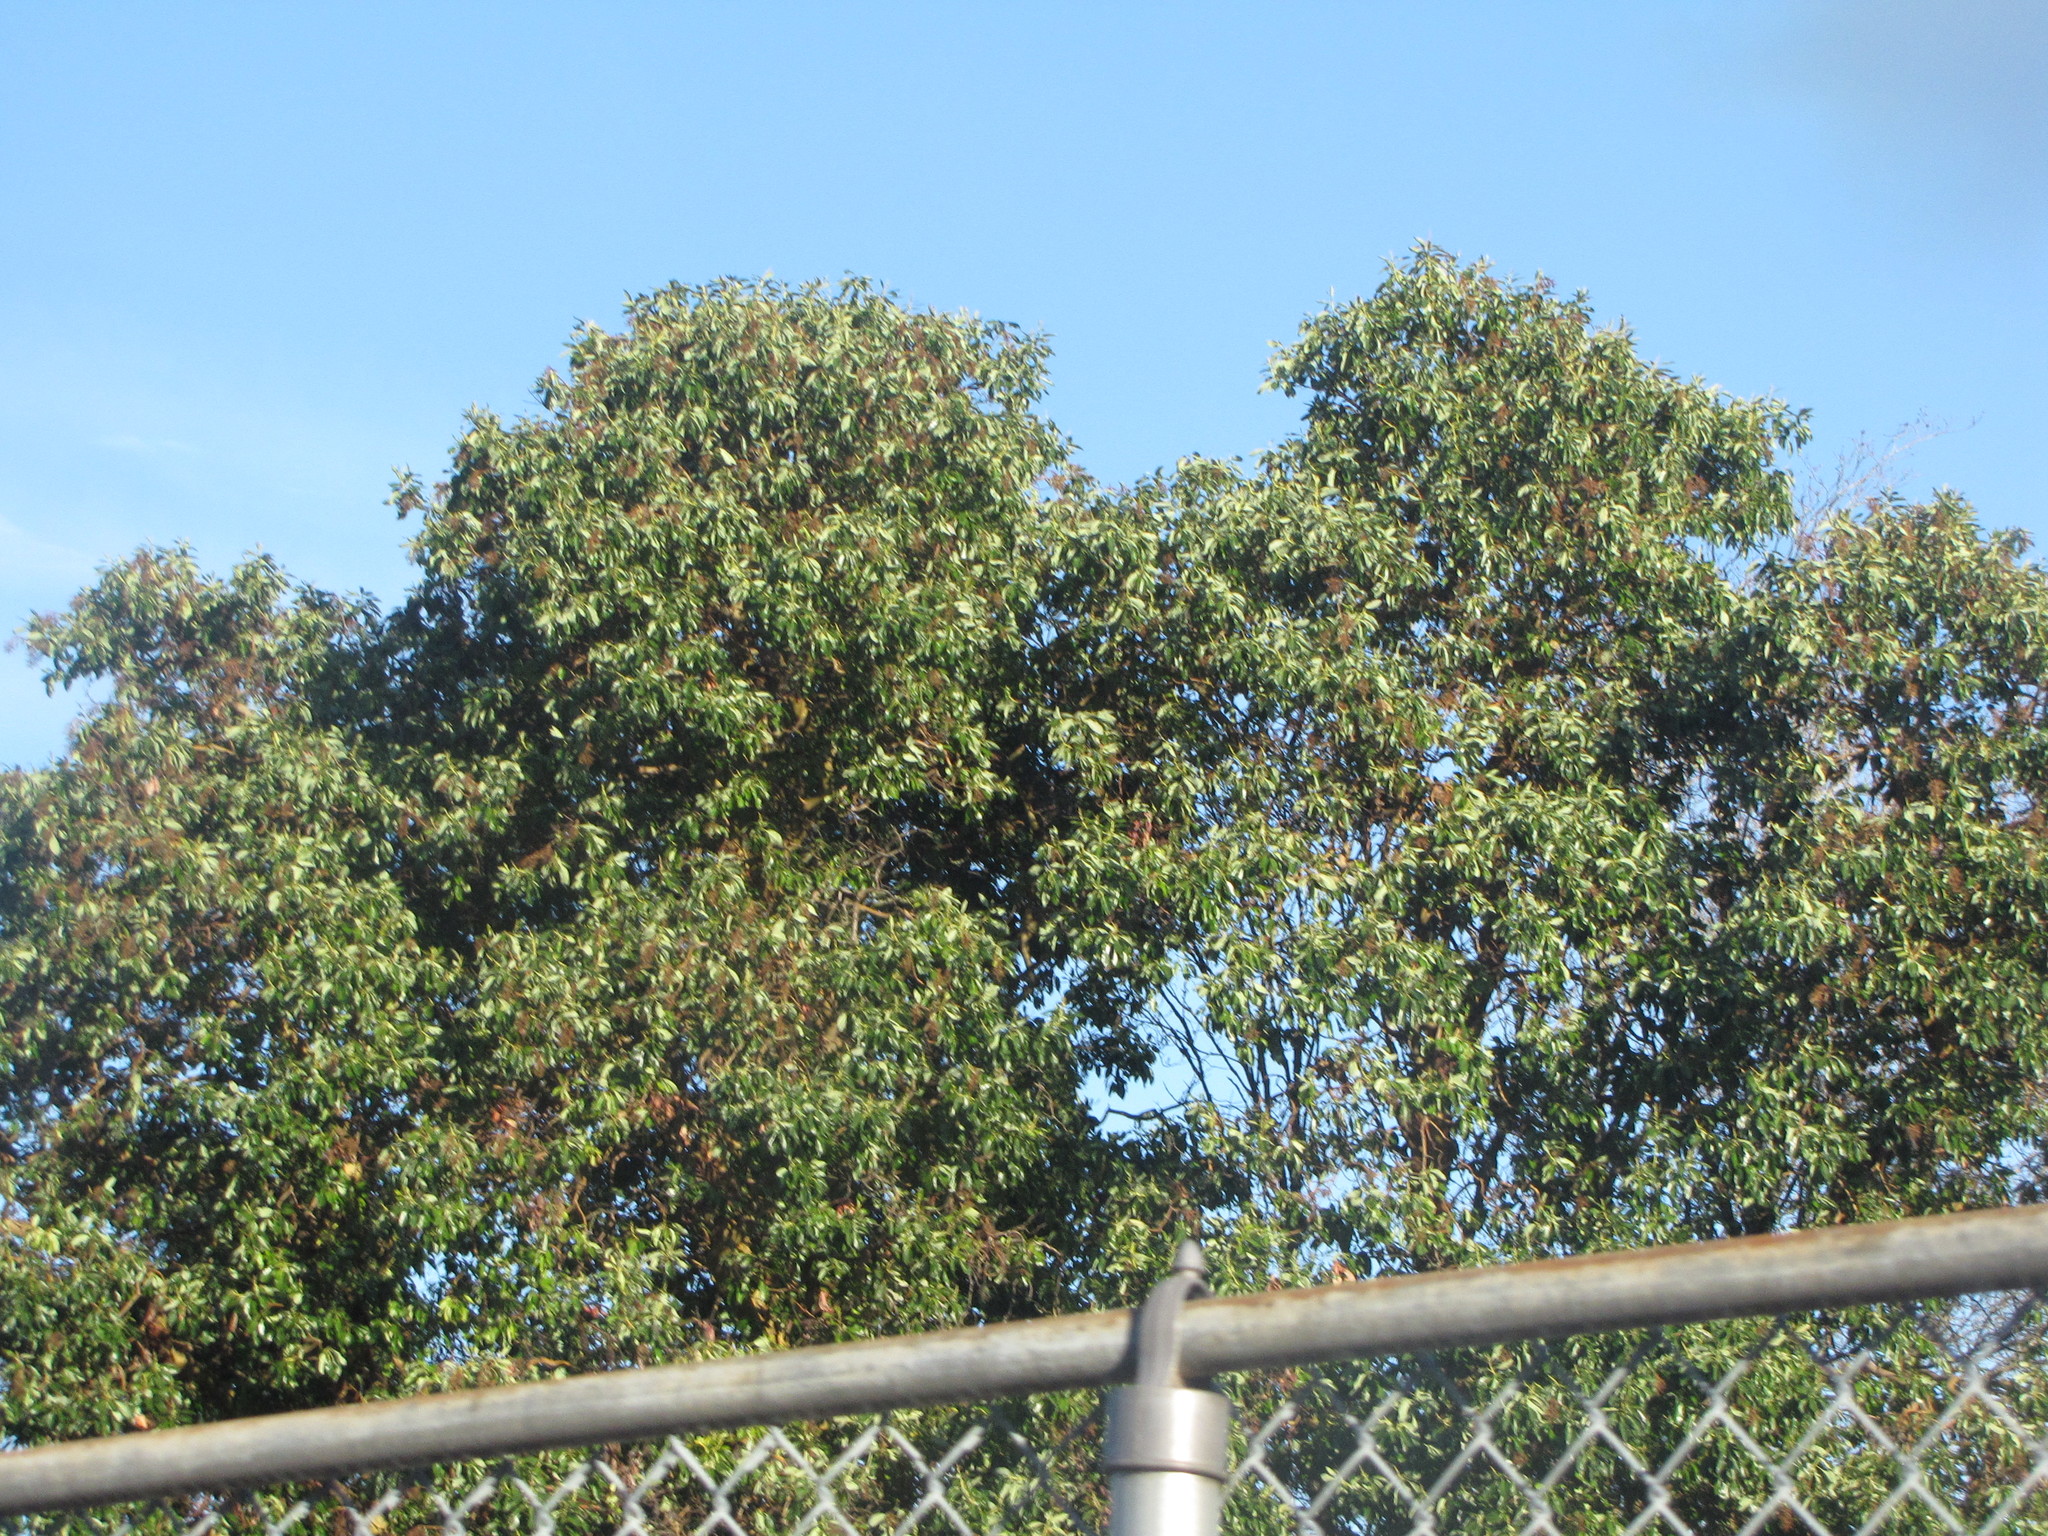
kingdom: Plantae
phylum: Tracheophyta
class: Magnoliopsida
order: Ericales
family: Ericaceae
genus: Arbutus
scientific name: Arbutus menziesii
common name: Pacific madrone
